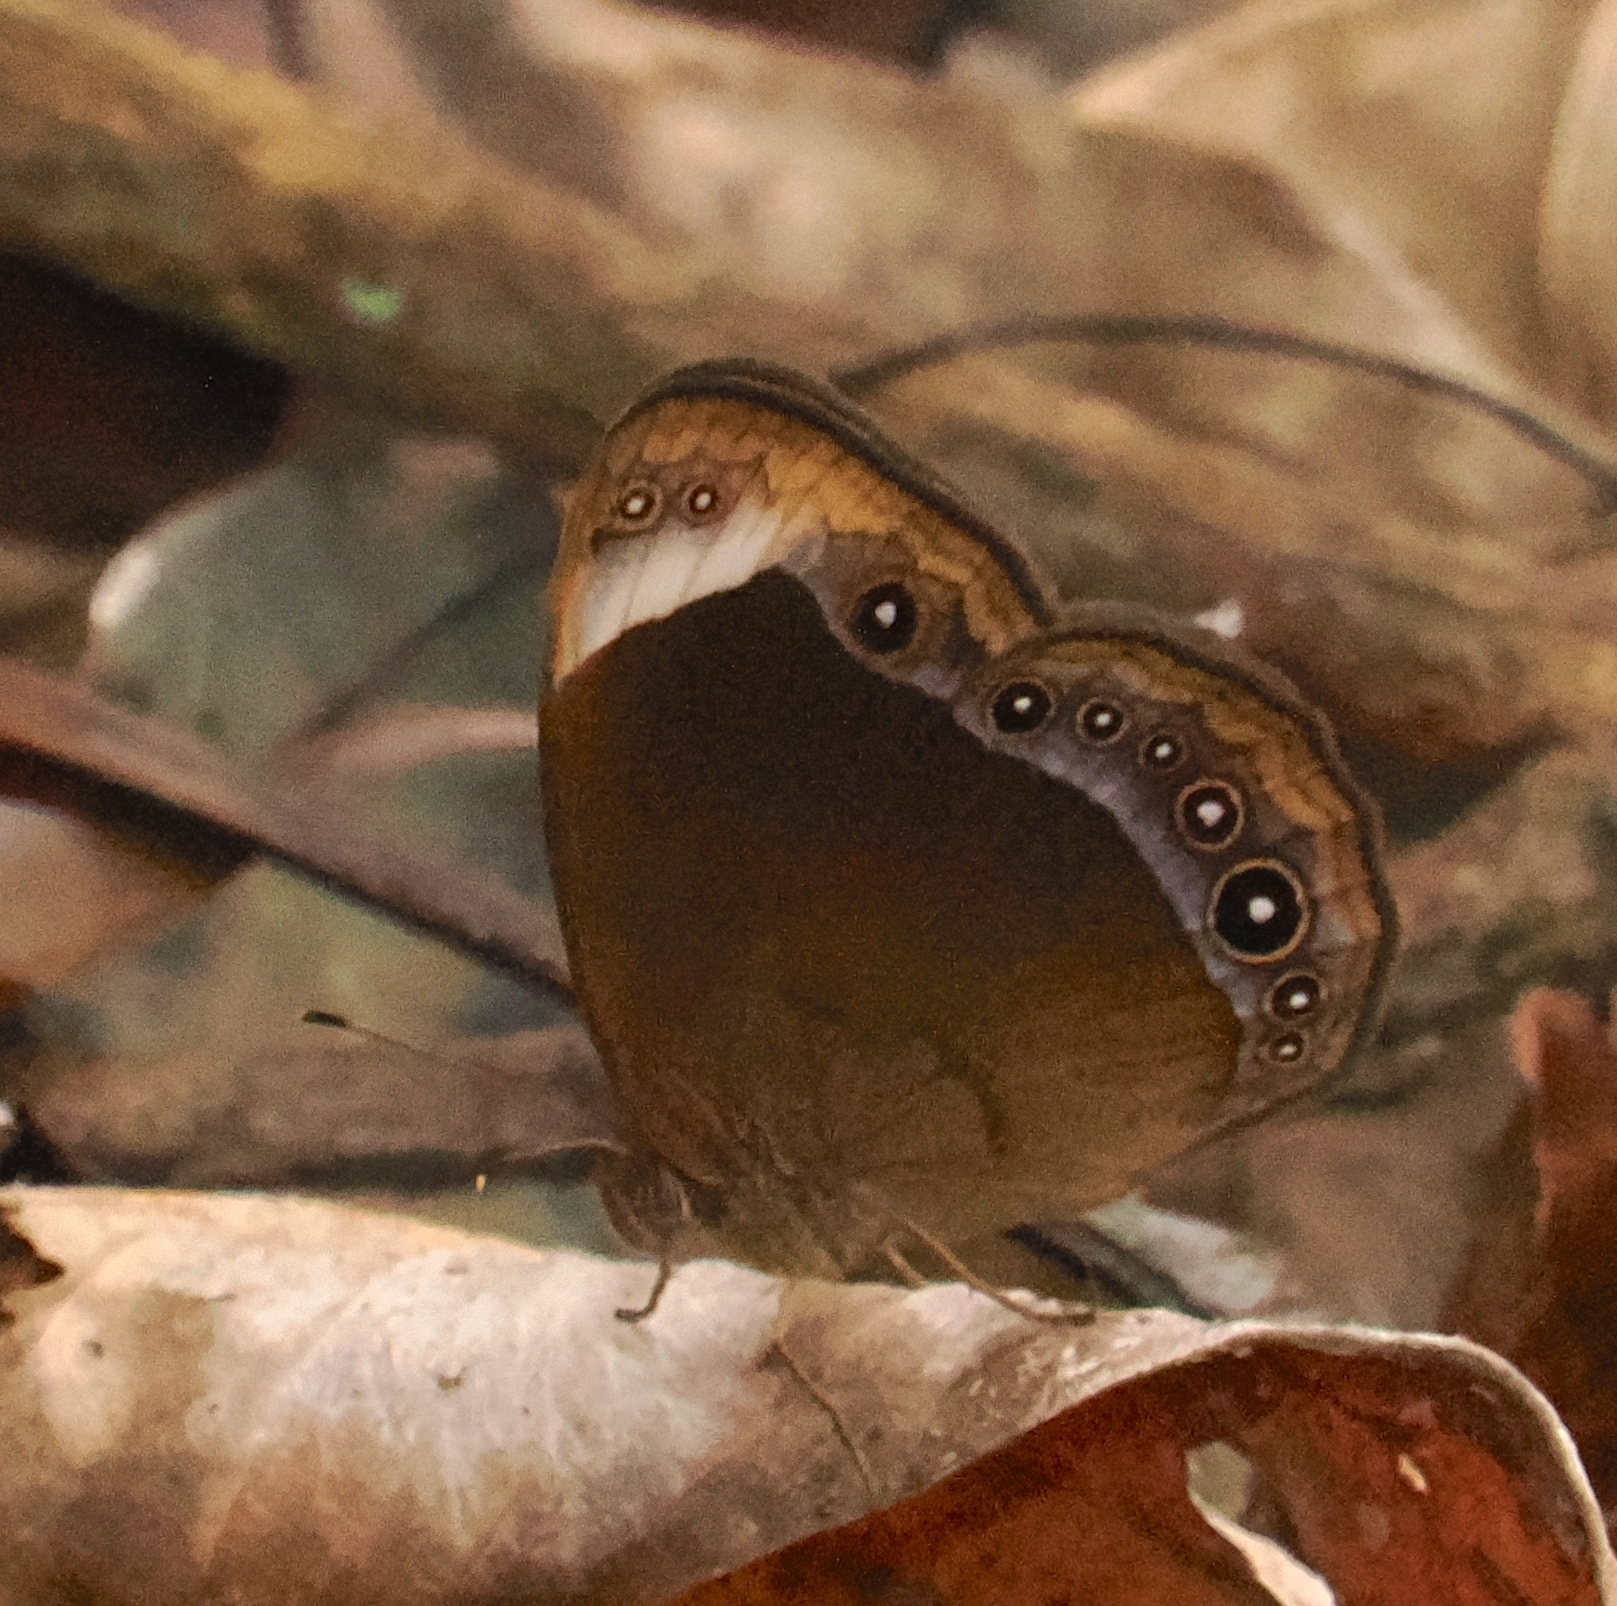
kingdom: Animalia
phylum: Arthropoda
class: Insecta
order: Lepidoptera
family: Nymphalidae
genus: Mycalesis
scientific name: Mycalesis anaxias
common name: White-bar bushbrown
